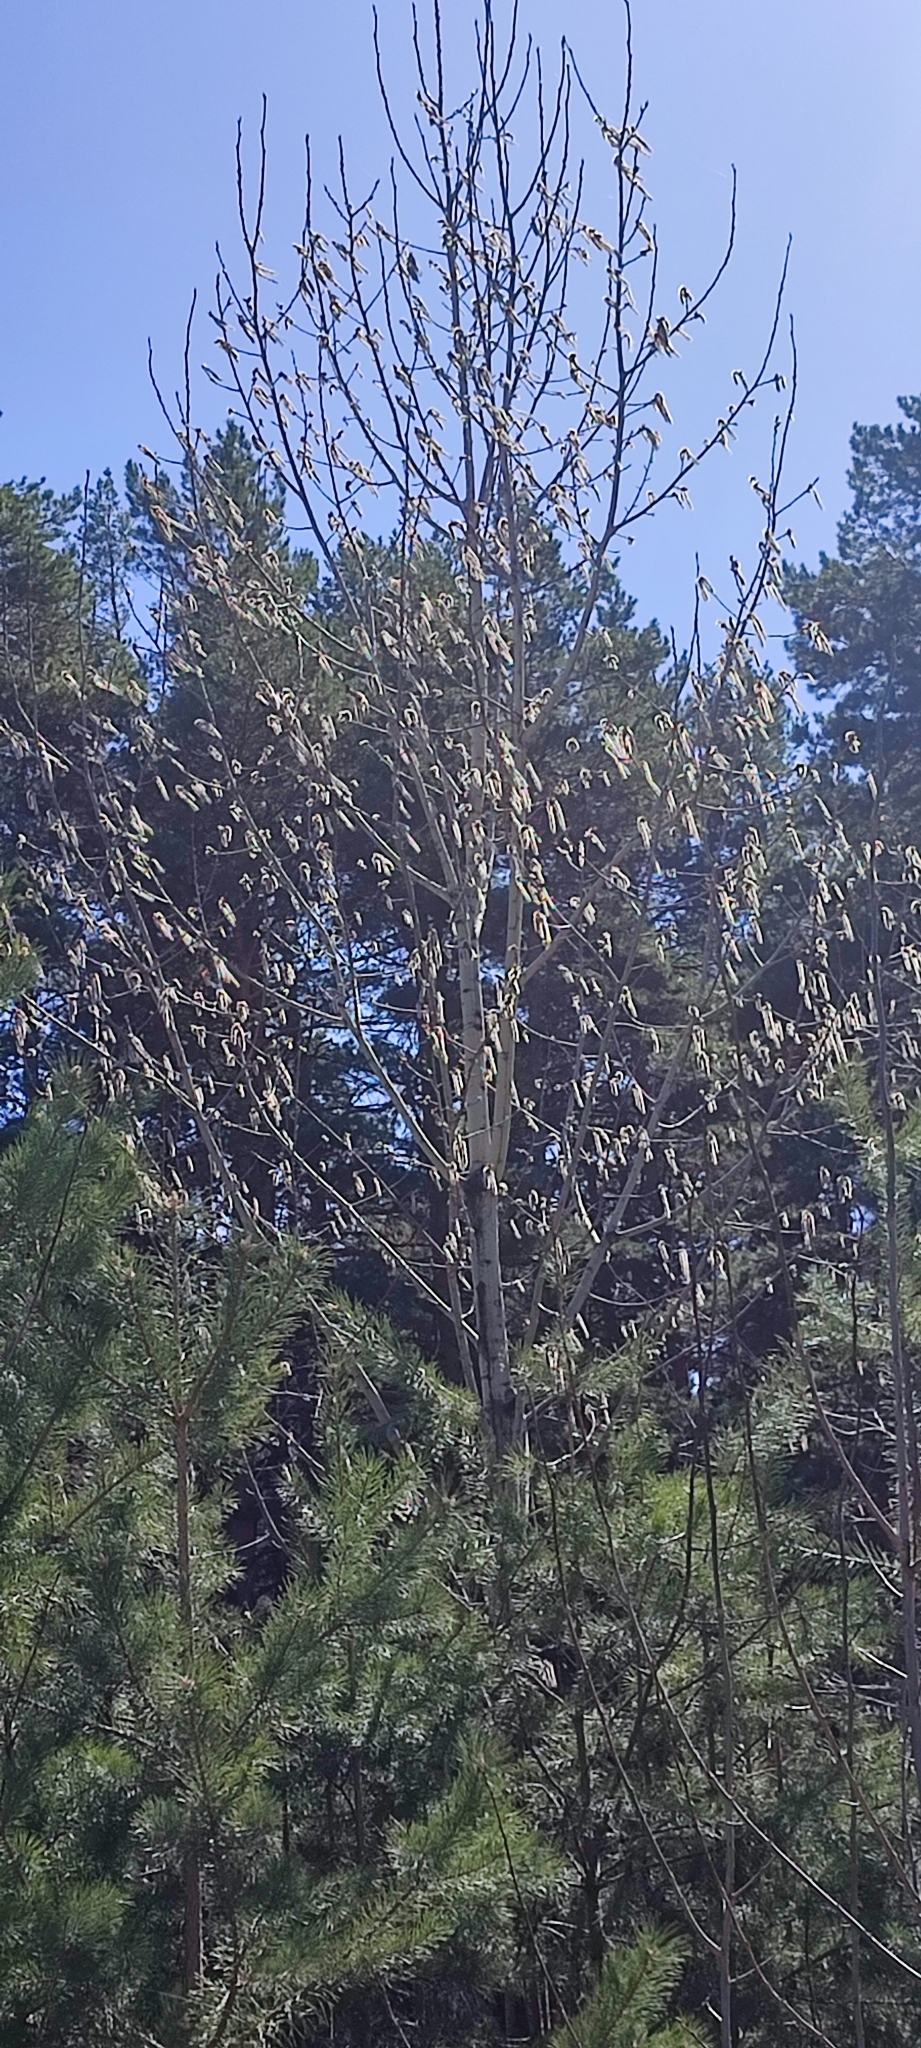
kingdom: Plantae
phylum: Tracheophyta
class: Magnoliopsida
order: Malpighiales
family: Salicaceae
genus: Populus
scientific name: Populus tremula
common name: European aspen
